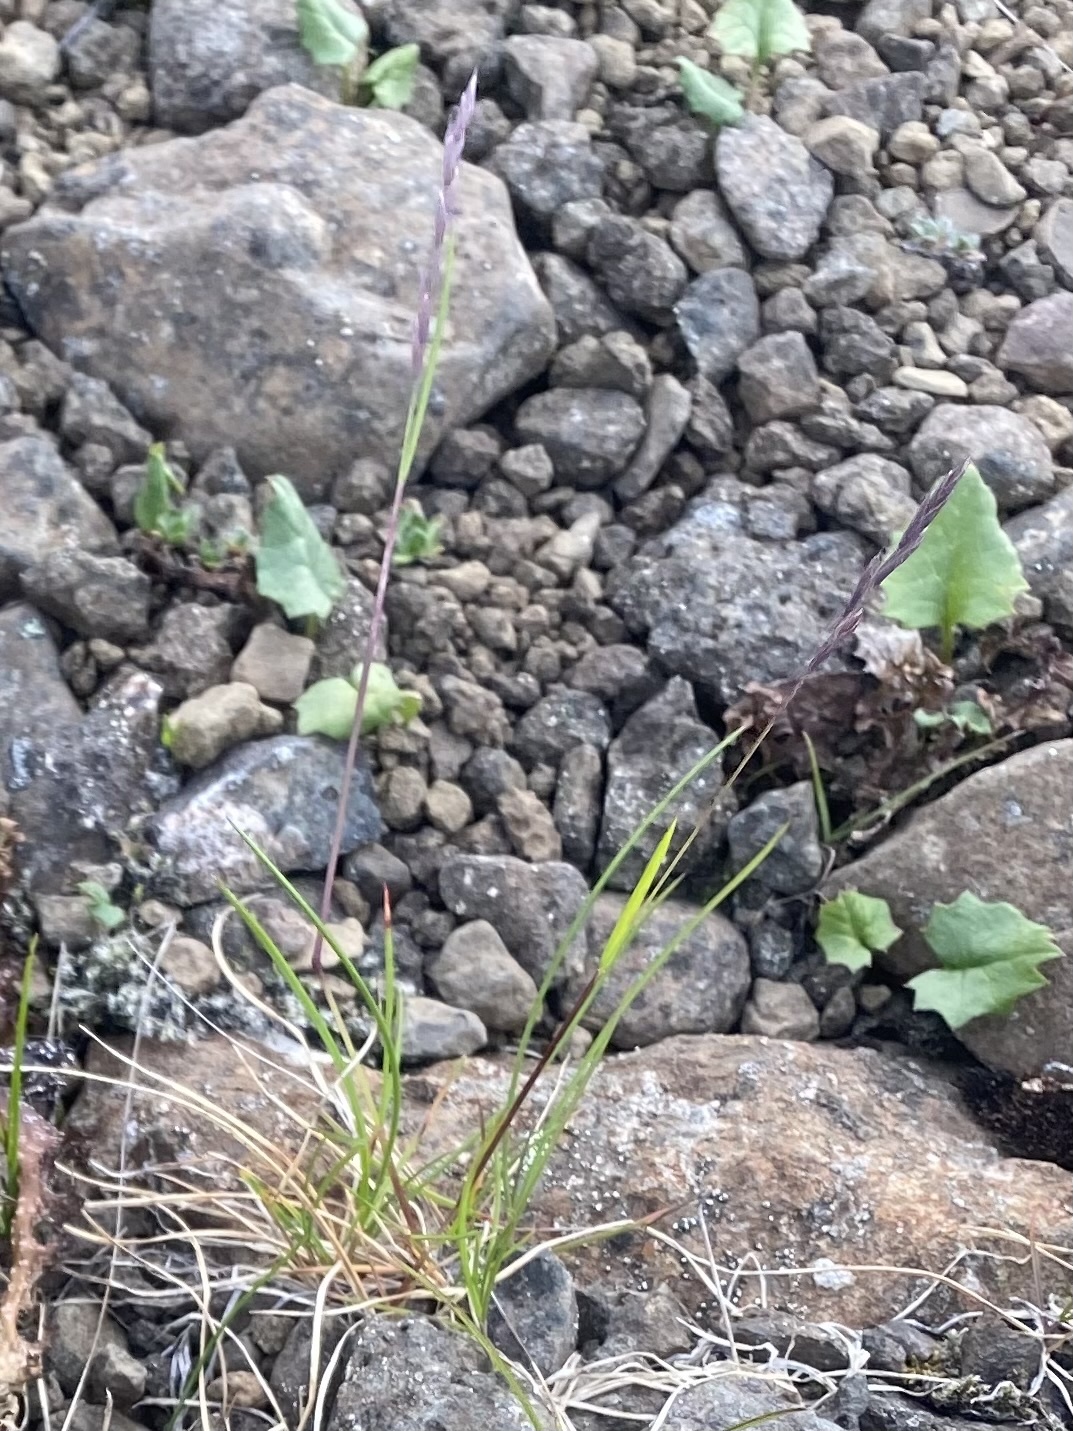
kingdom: Plantae
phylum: Tracheophyta
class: Liliopsida
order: Poales
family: Poaceae
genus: Festuca
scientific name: Festuca richardsonii
